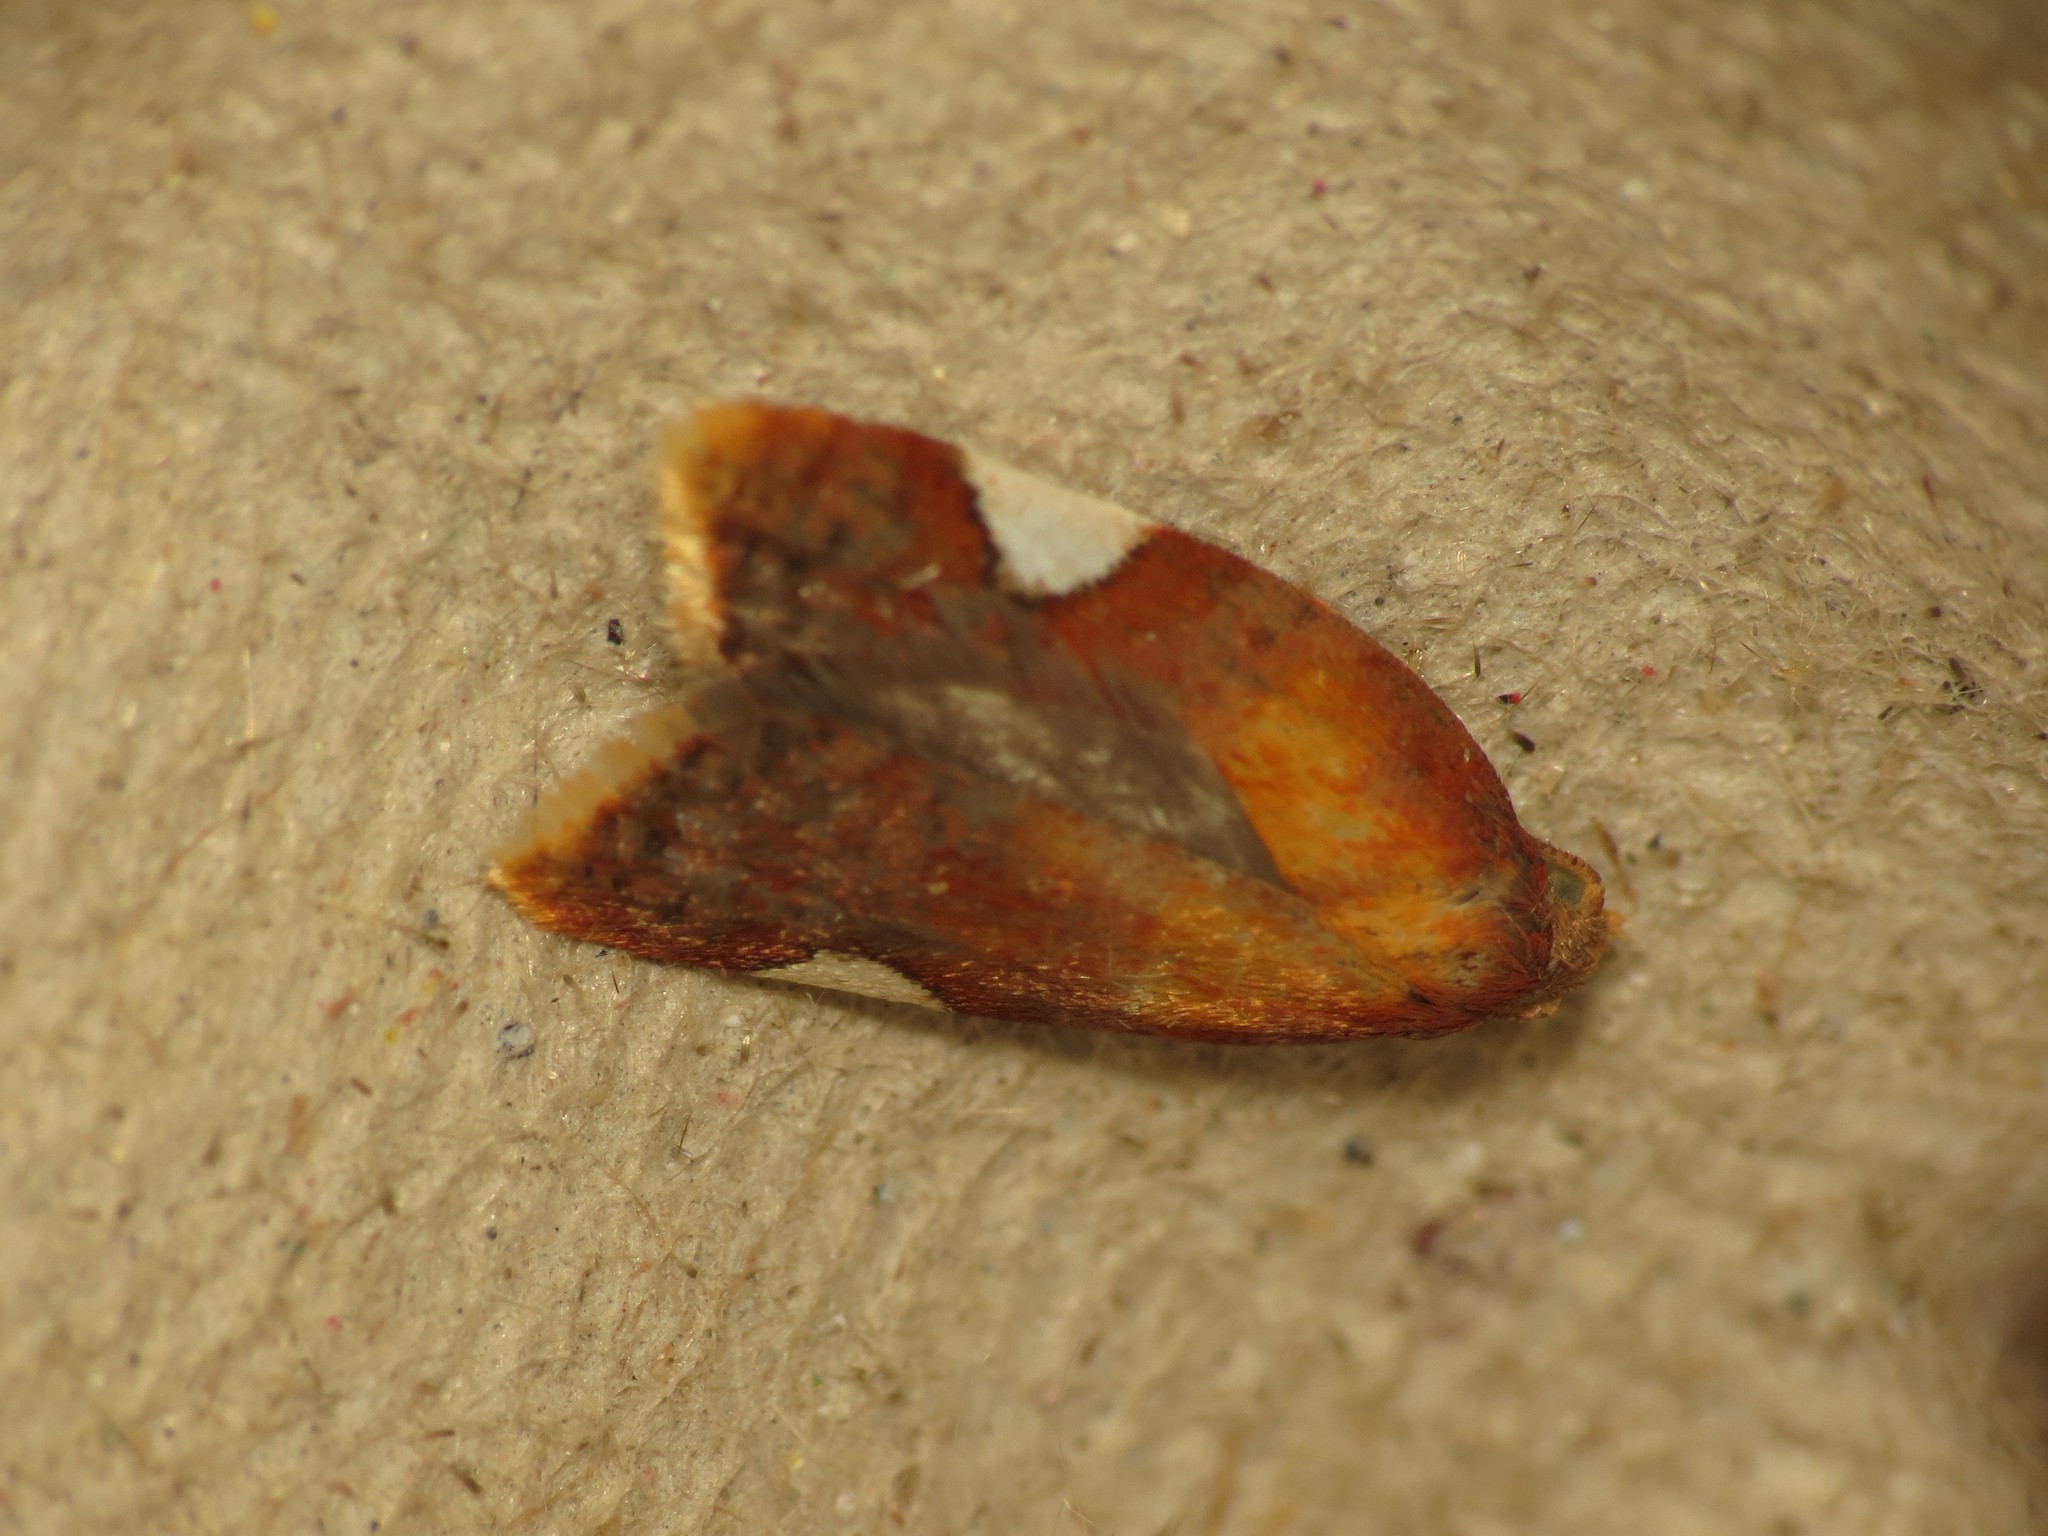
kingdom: Animalia
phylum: Arthropoda
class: Insecta
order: Lepidoptera
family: Tortricidae
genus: Acleris
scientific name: Acleris holmiana
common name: Golden leafroller moth
